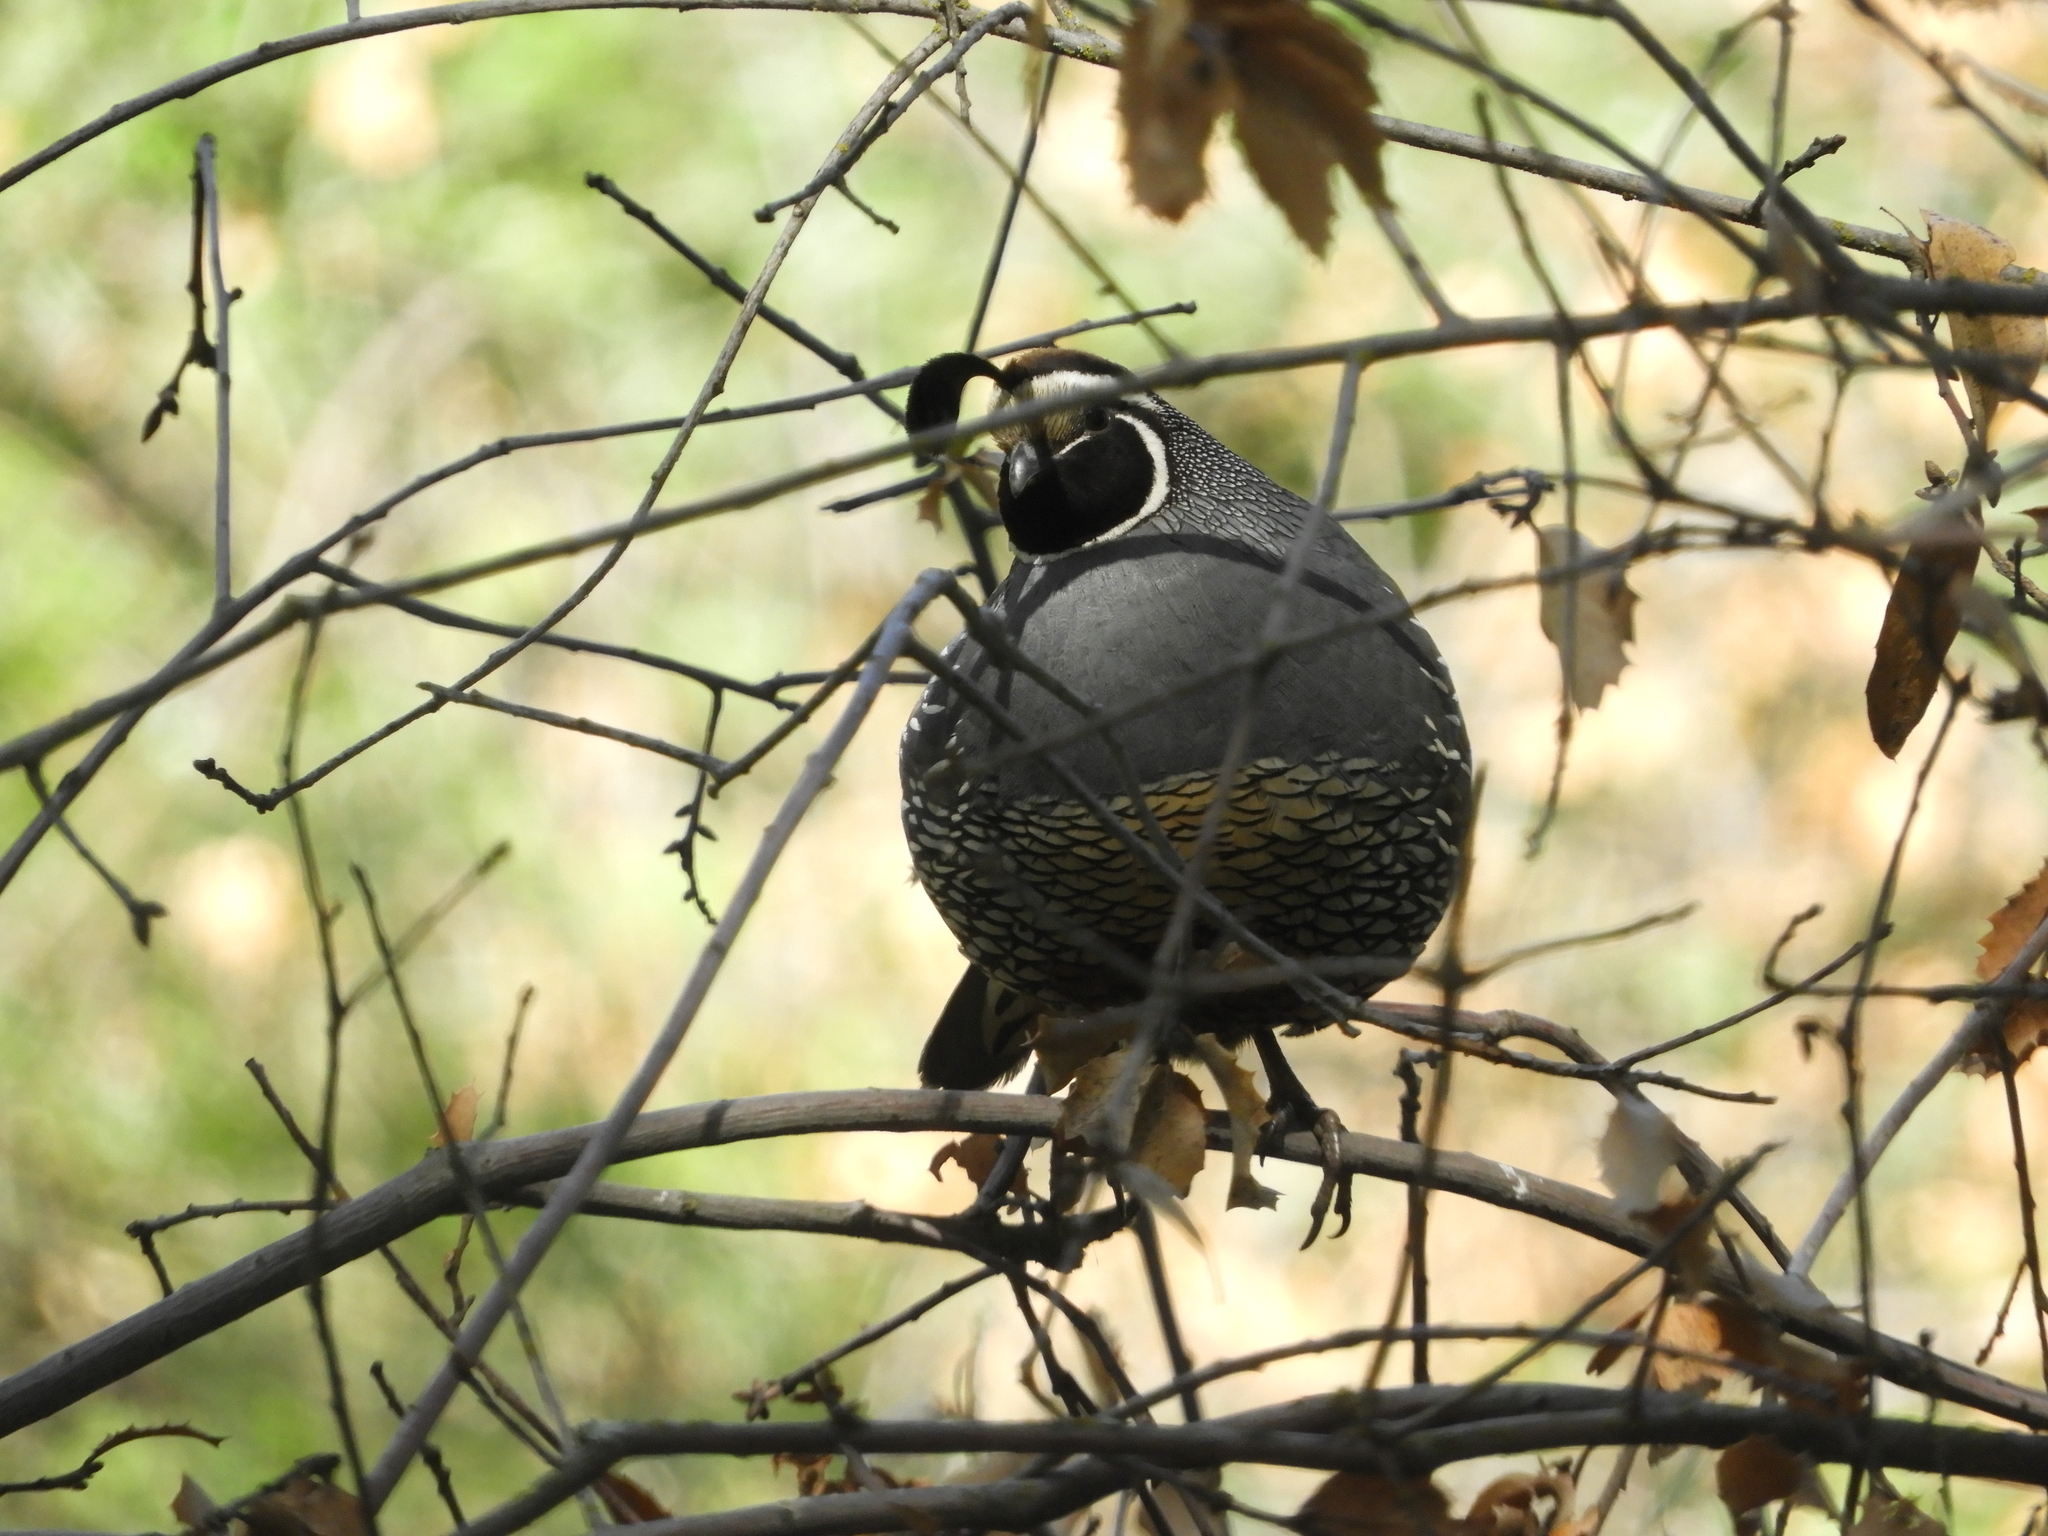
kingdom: Animalia
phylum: Chordata
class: Aves
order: Galliformes
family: Odontophoridae
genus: Callipepla
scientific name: Callipepla californica
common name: California quail
